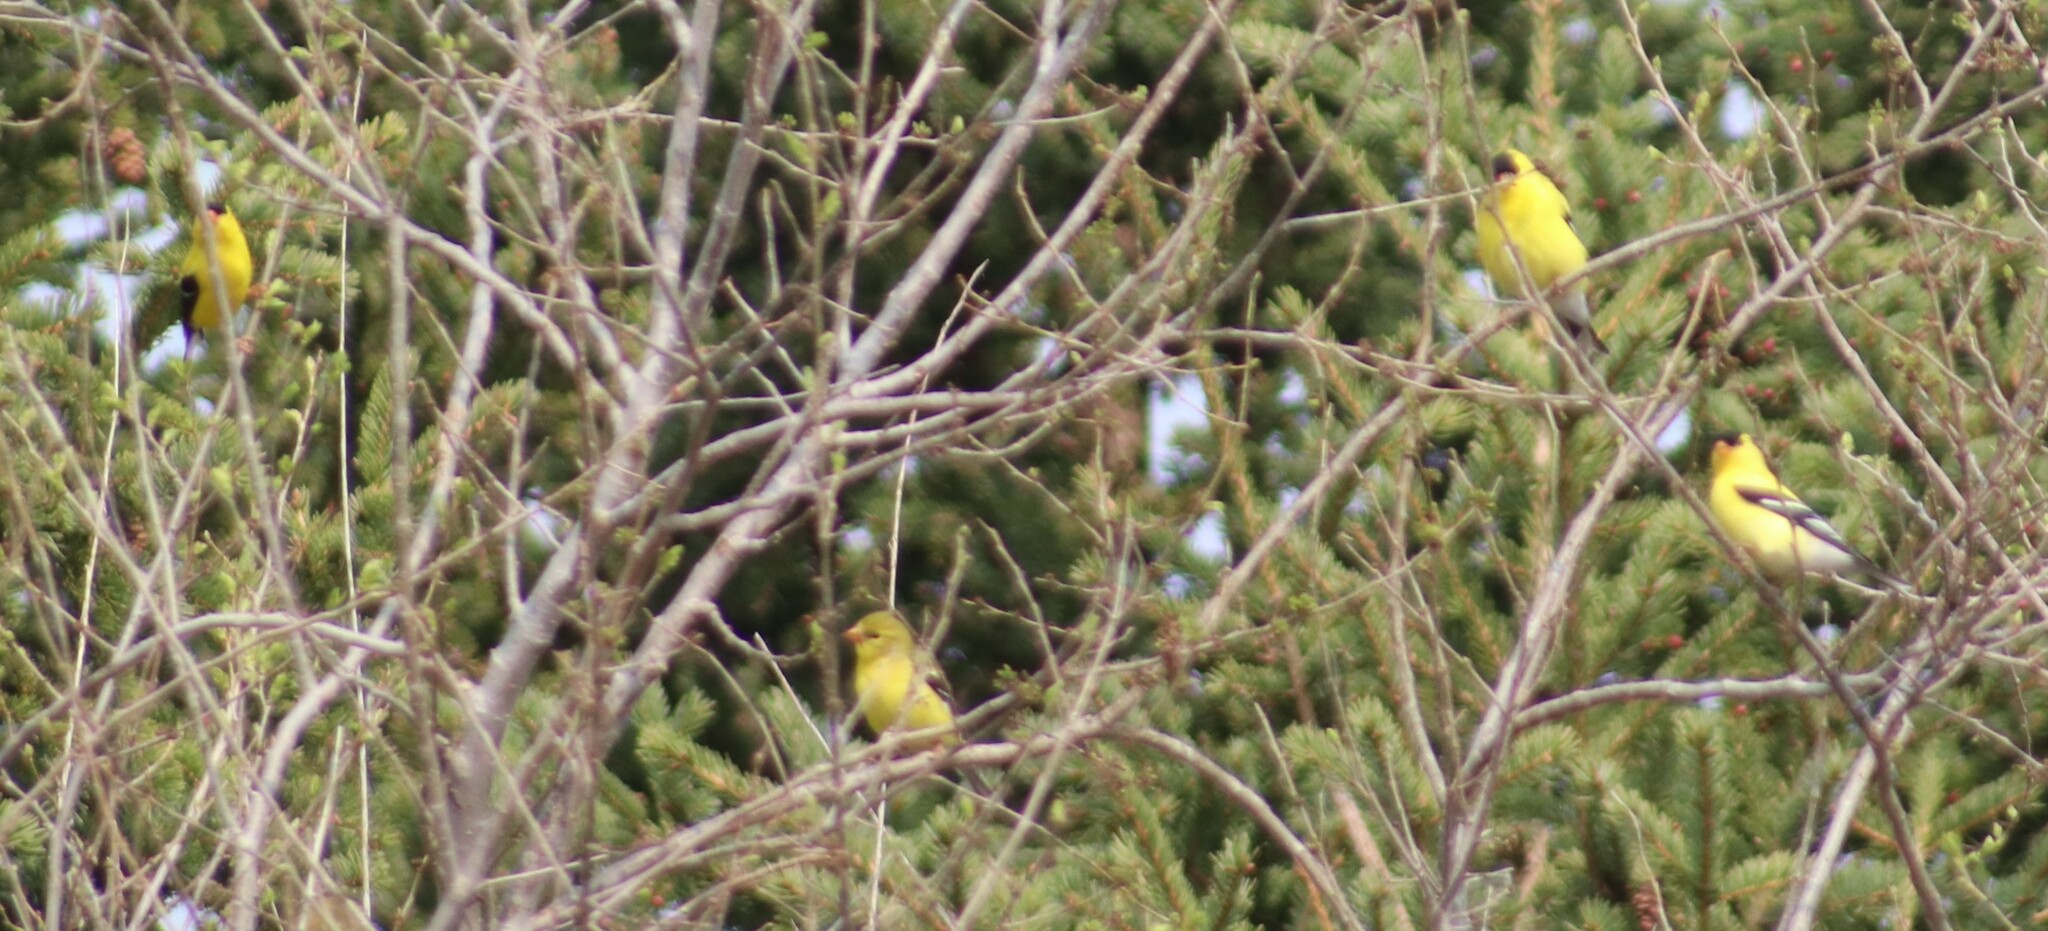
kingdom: Animalia
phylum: Chordata
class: Aves
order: Passeriformes
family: Fringillidae
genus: Spinus
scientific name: Spinus tristis
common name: American goldfinch
